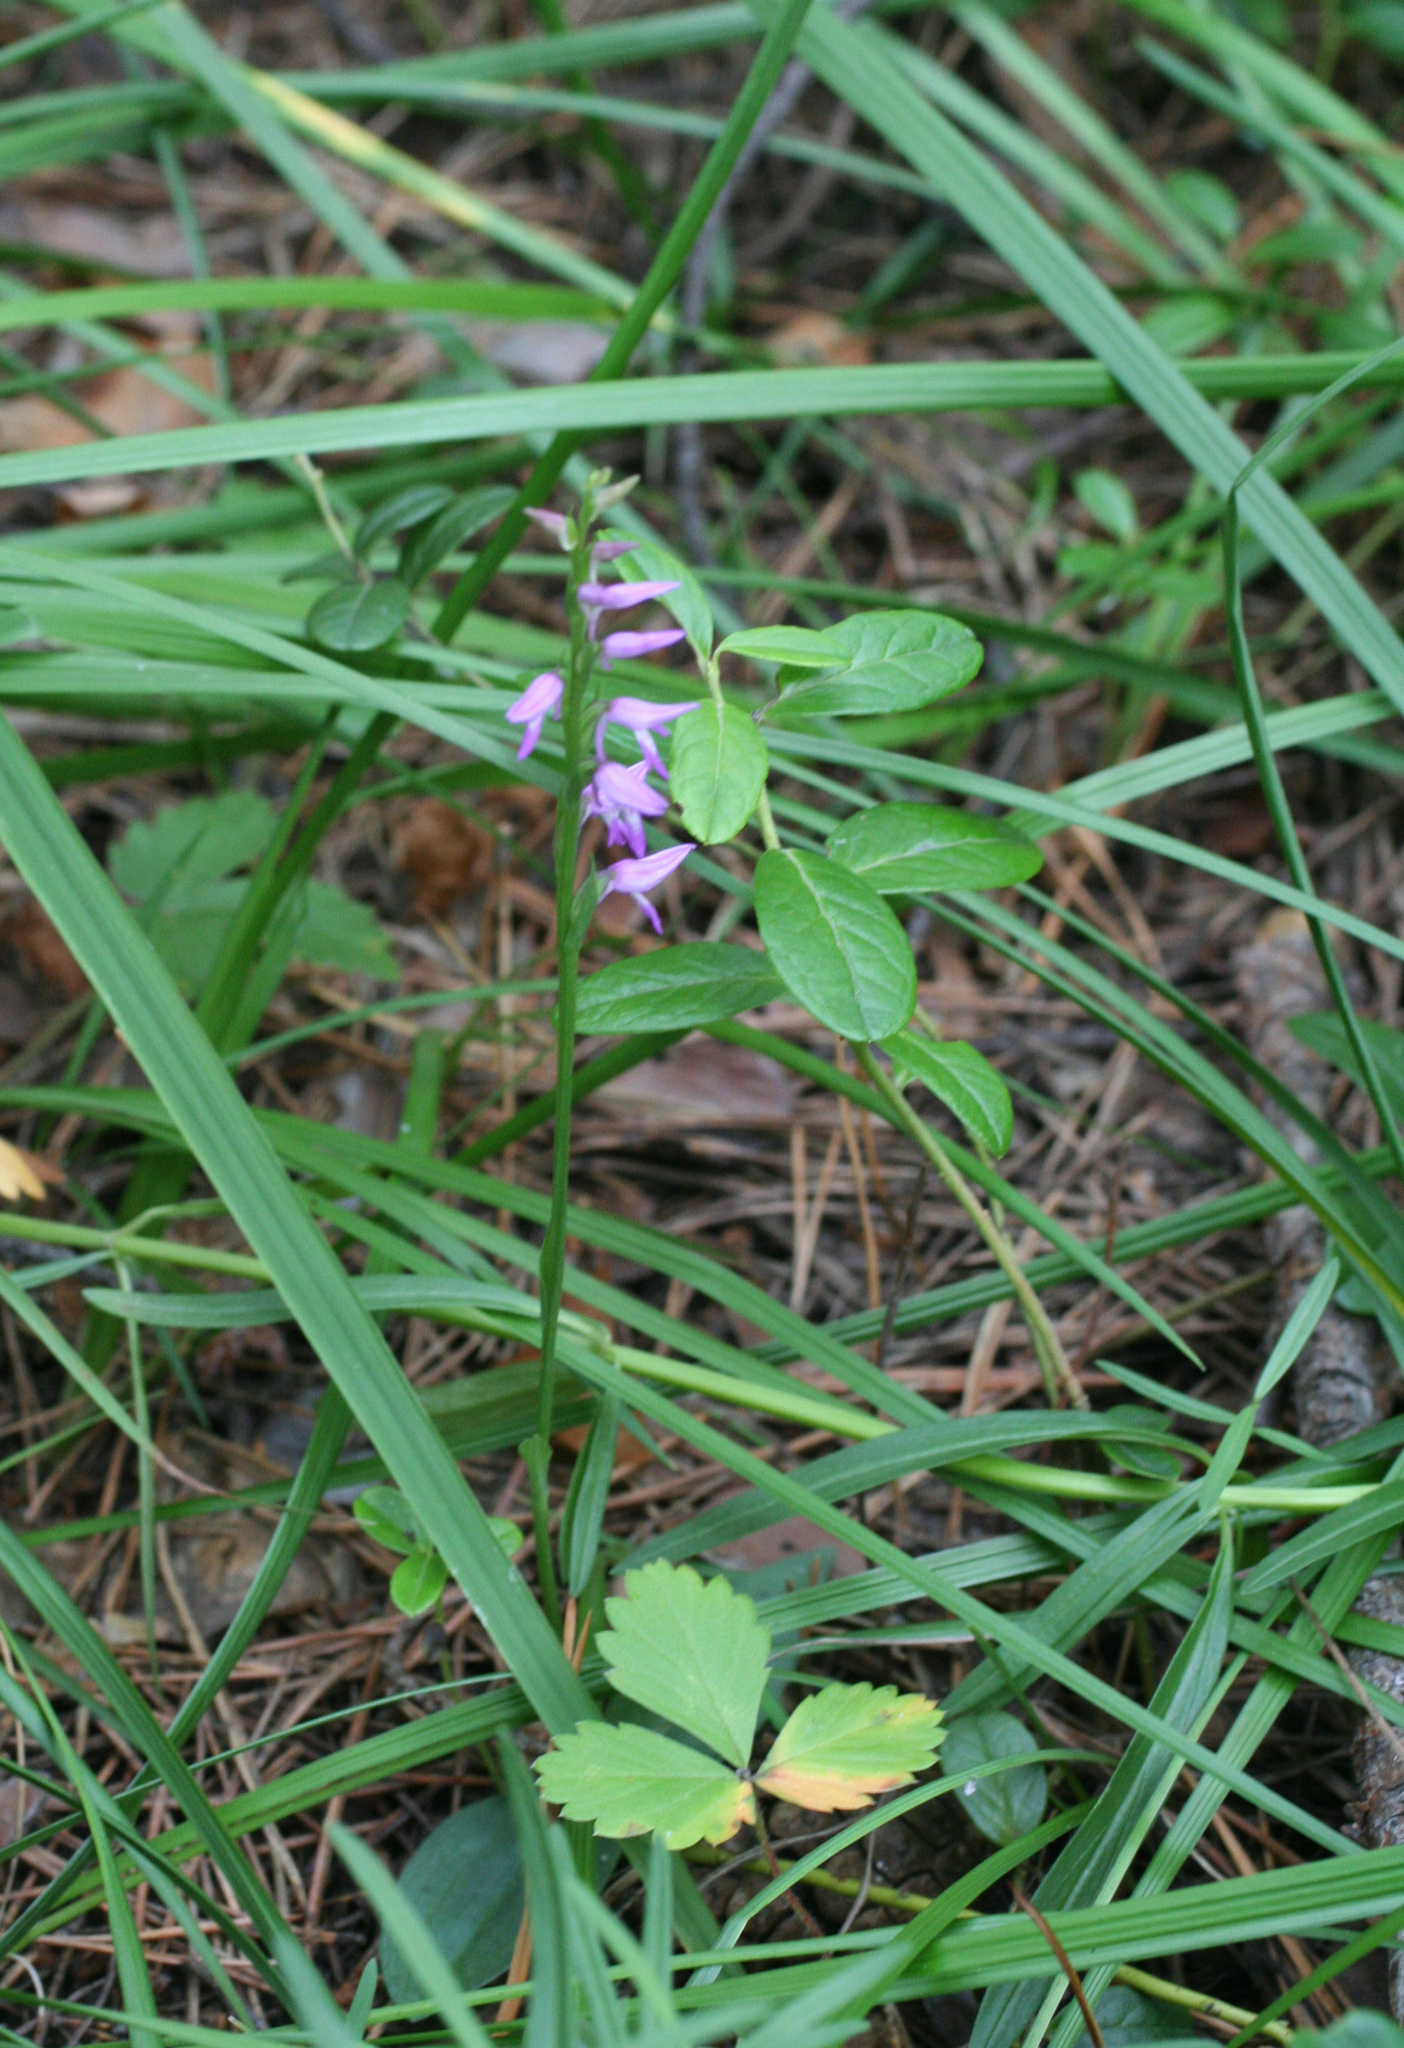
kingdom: Plantae
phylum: Tracheophyta
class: Liliopsida
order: Asparagales
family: Orchidaceae
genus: Hemipilia
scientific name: Hemipilia cucullata
